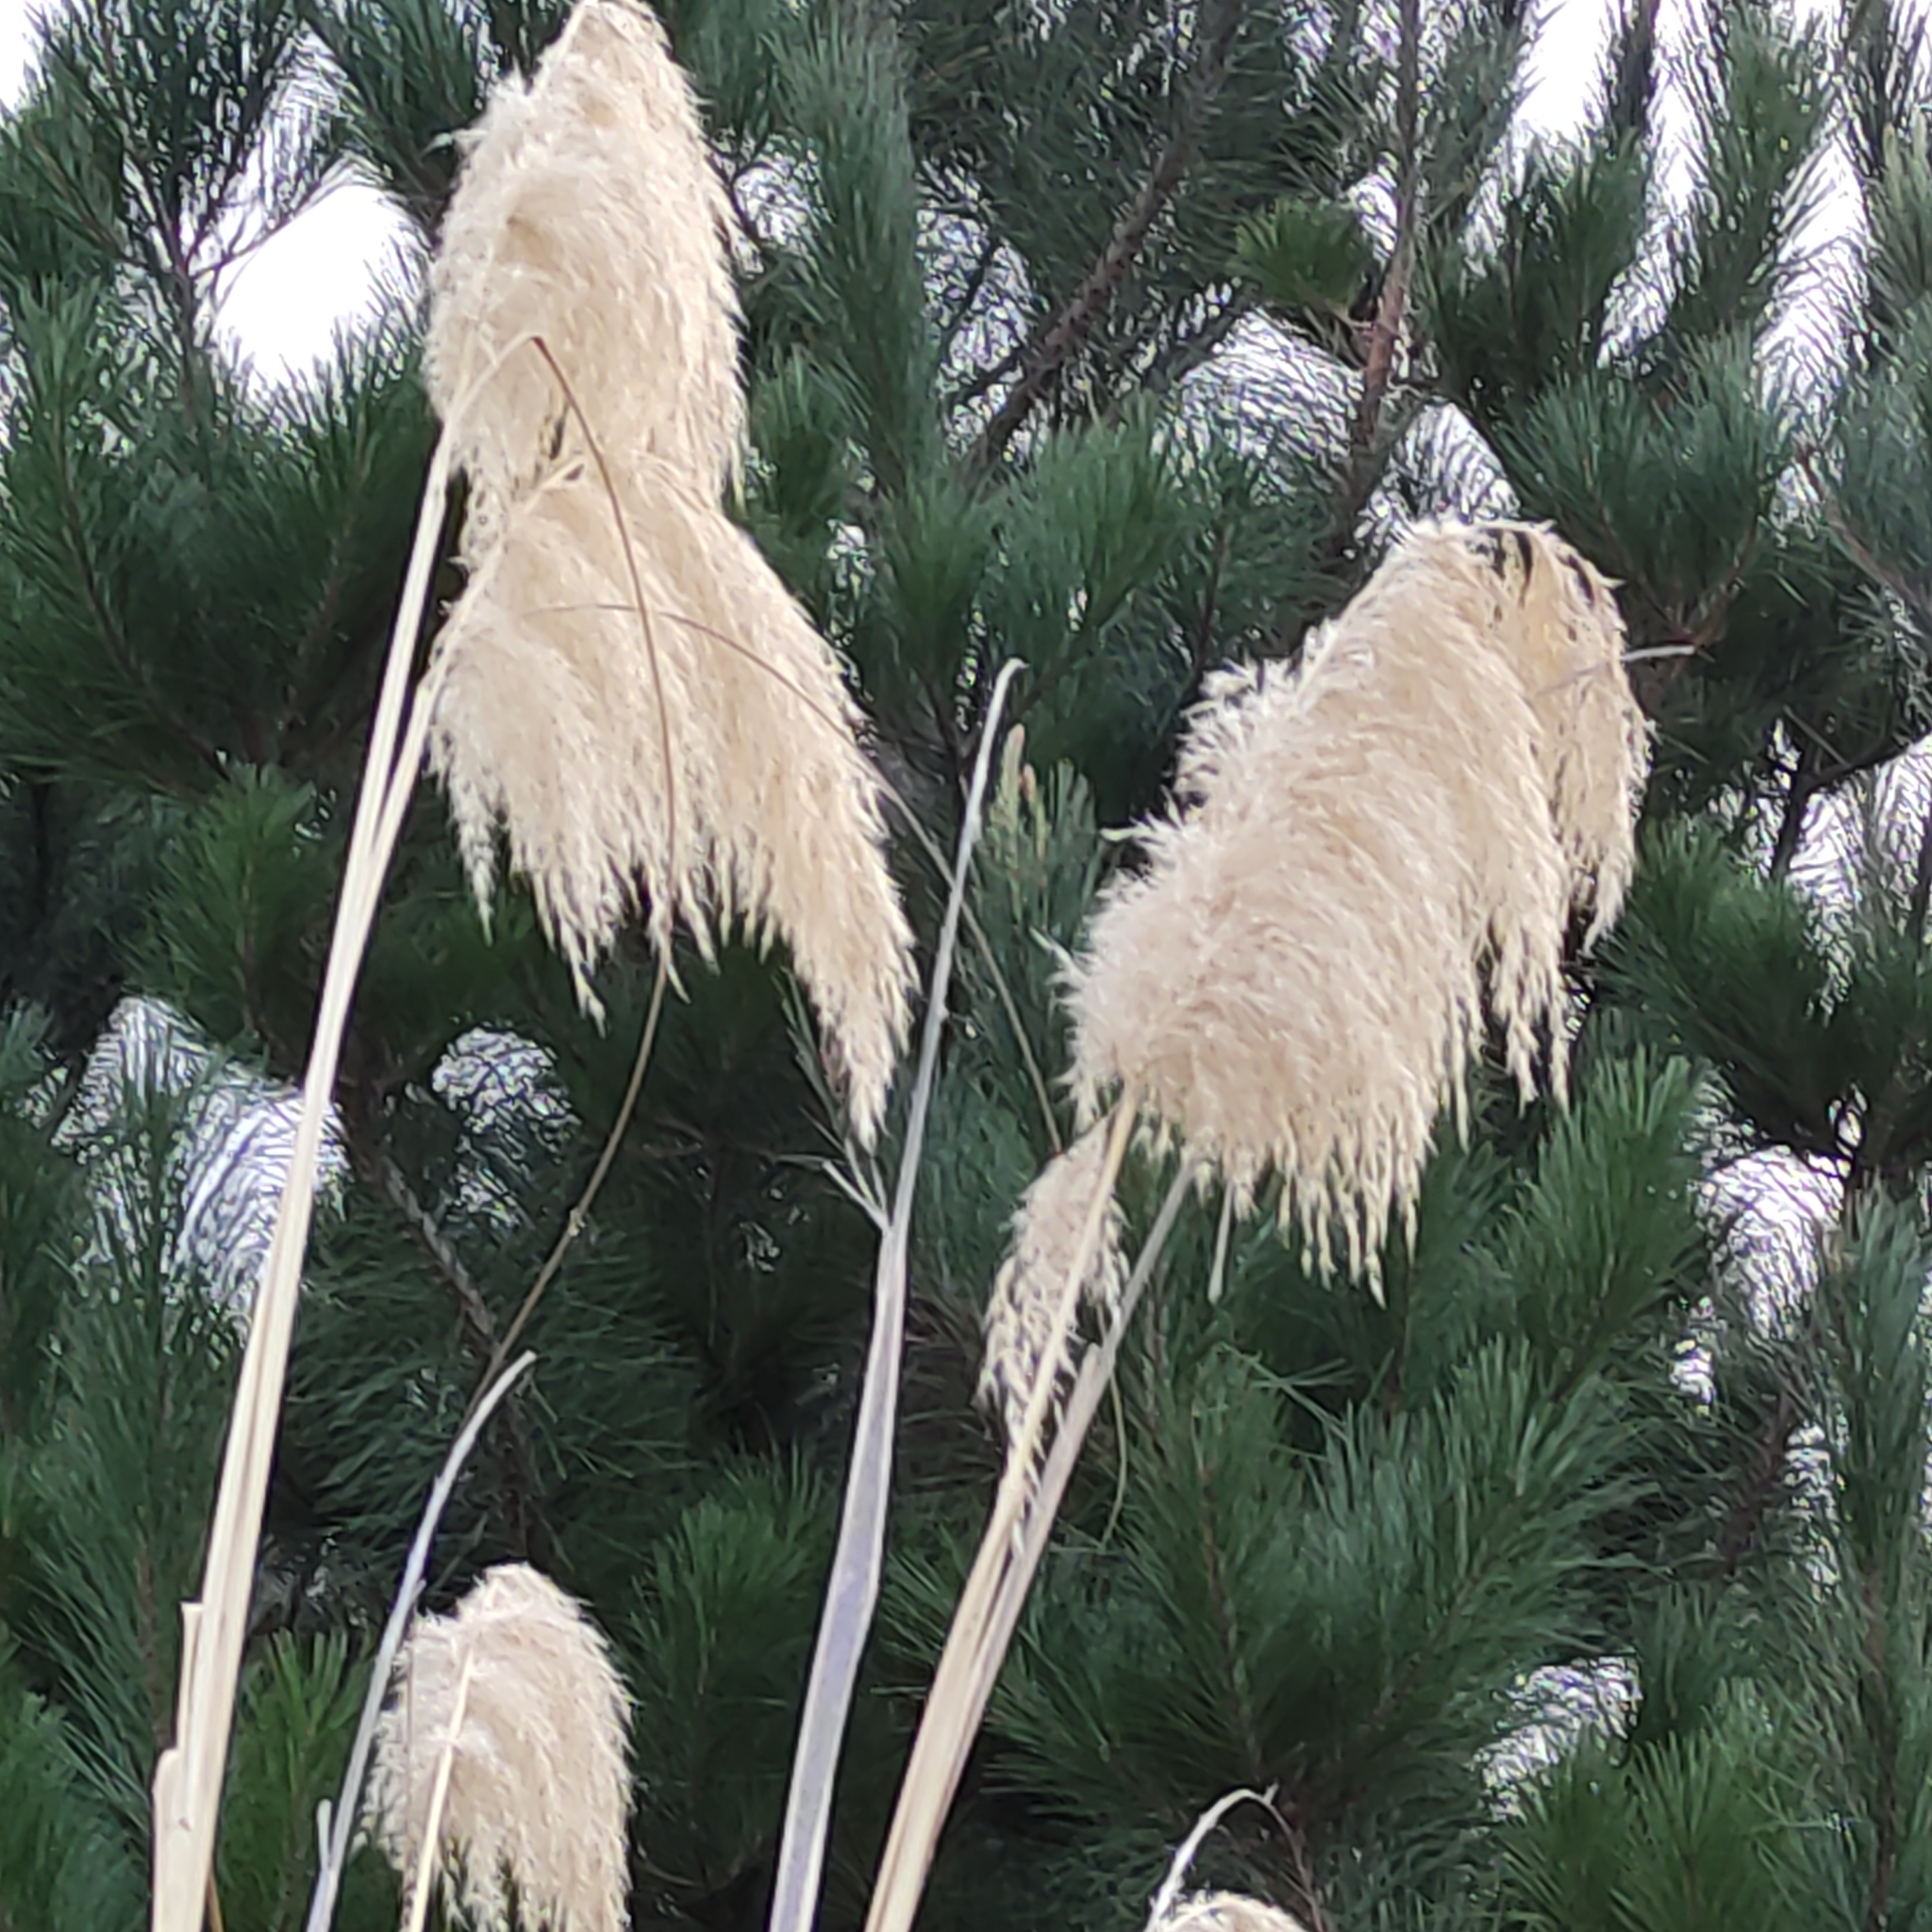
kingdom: Plantae
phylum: Tracheophyta
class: Liliopsida
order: Poales
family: Poaceae
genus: Austroderia
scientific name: Austroderia richardii
